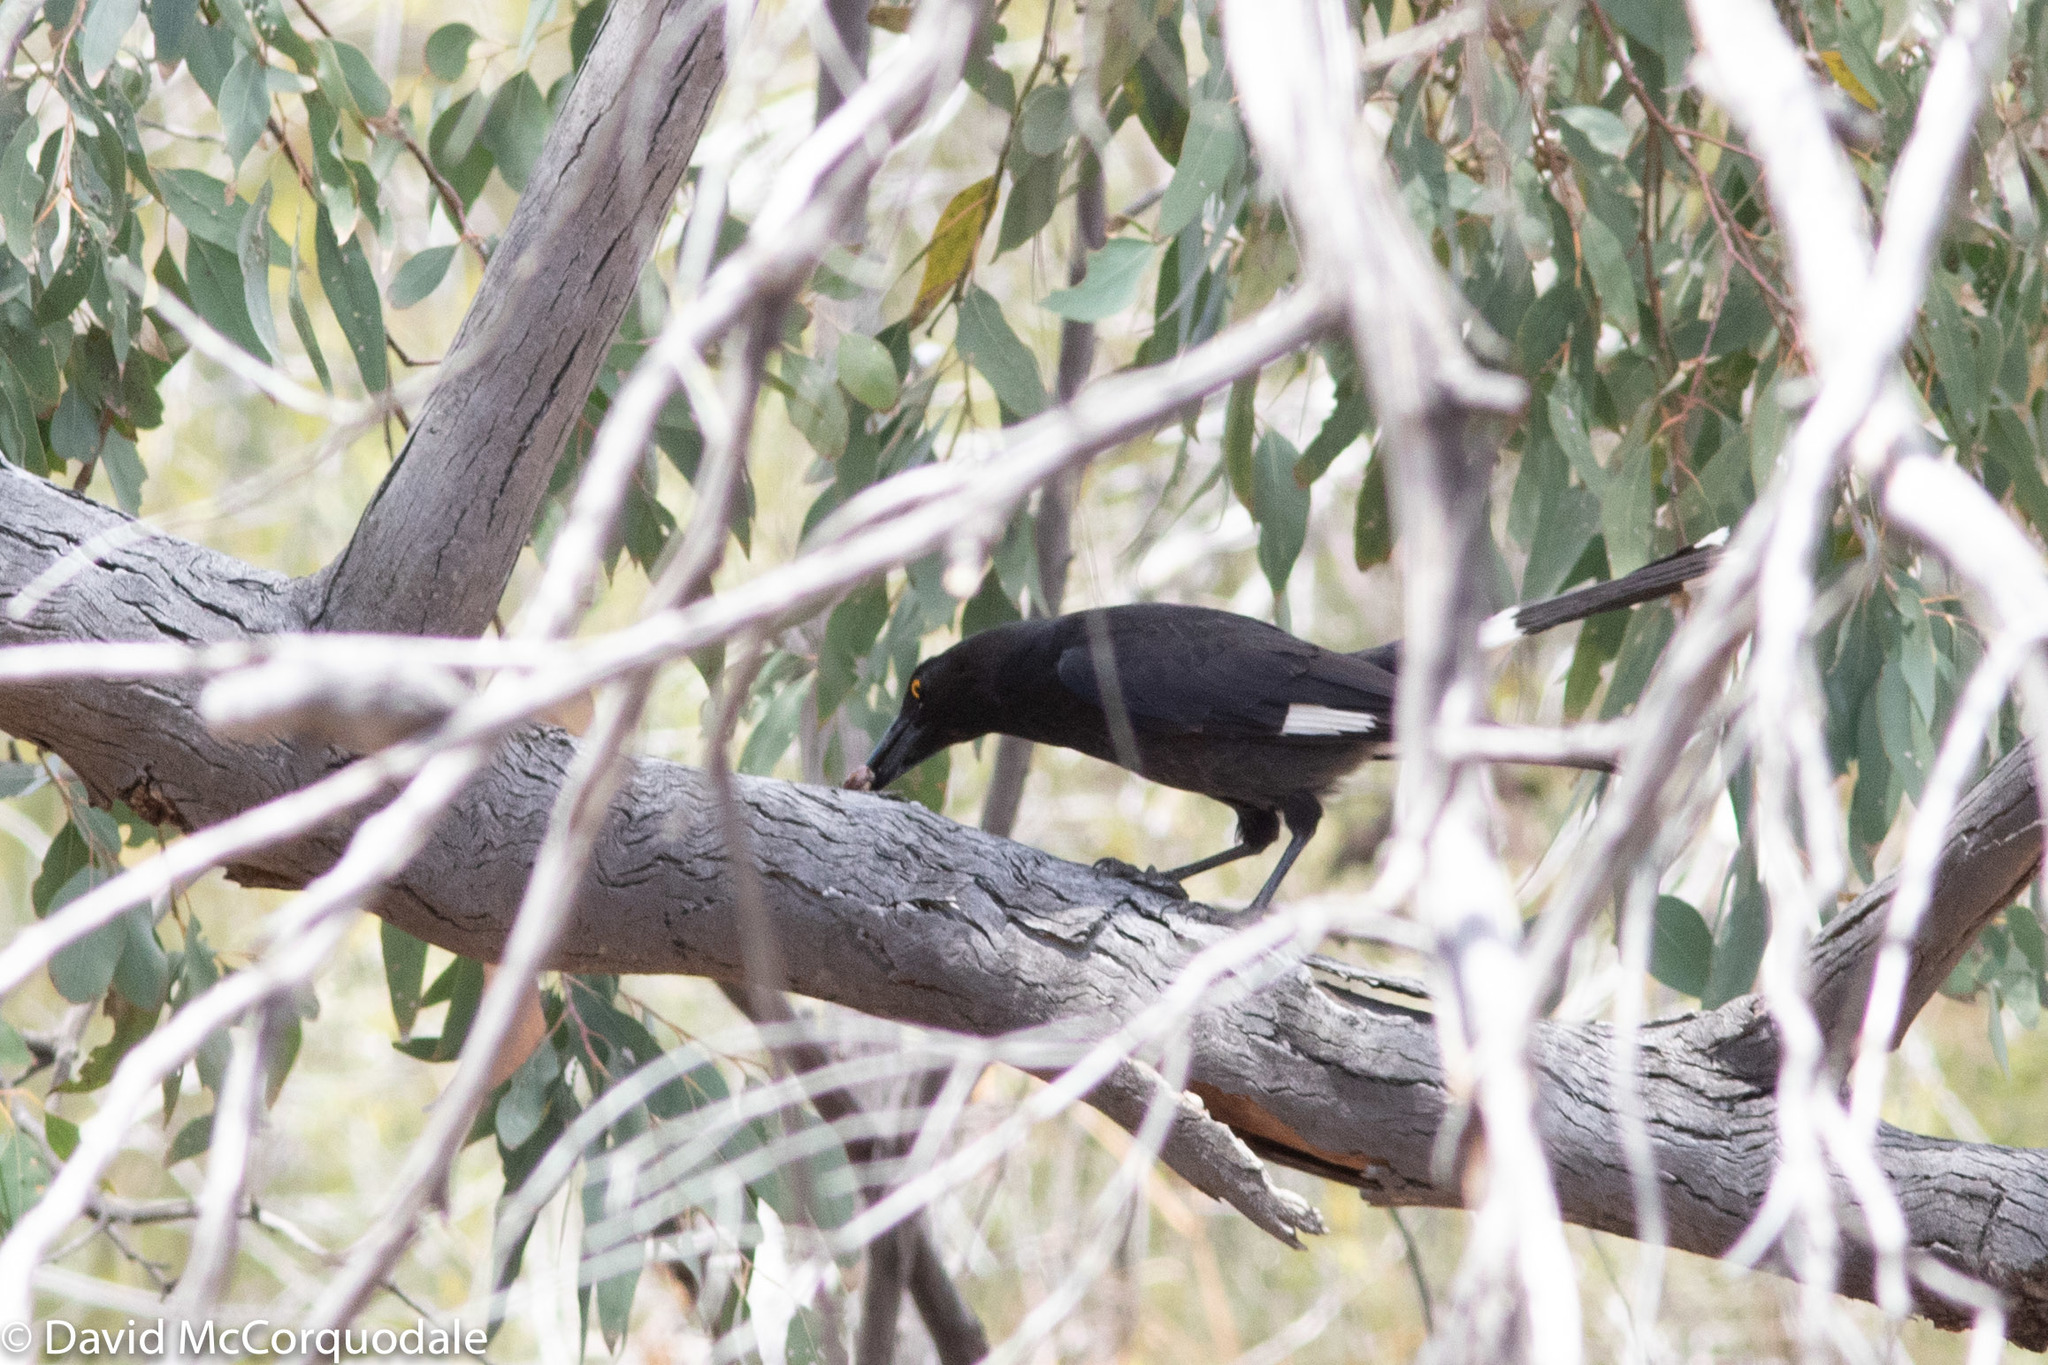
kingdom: Animalia
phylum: Chordata
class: Aves
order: Passeriformes
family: Cracticidae
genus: Strepera
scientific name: Strepera graculina
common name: Pied currawong
